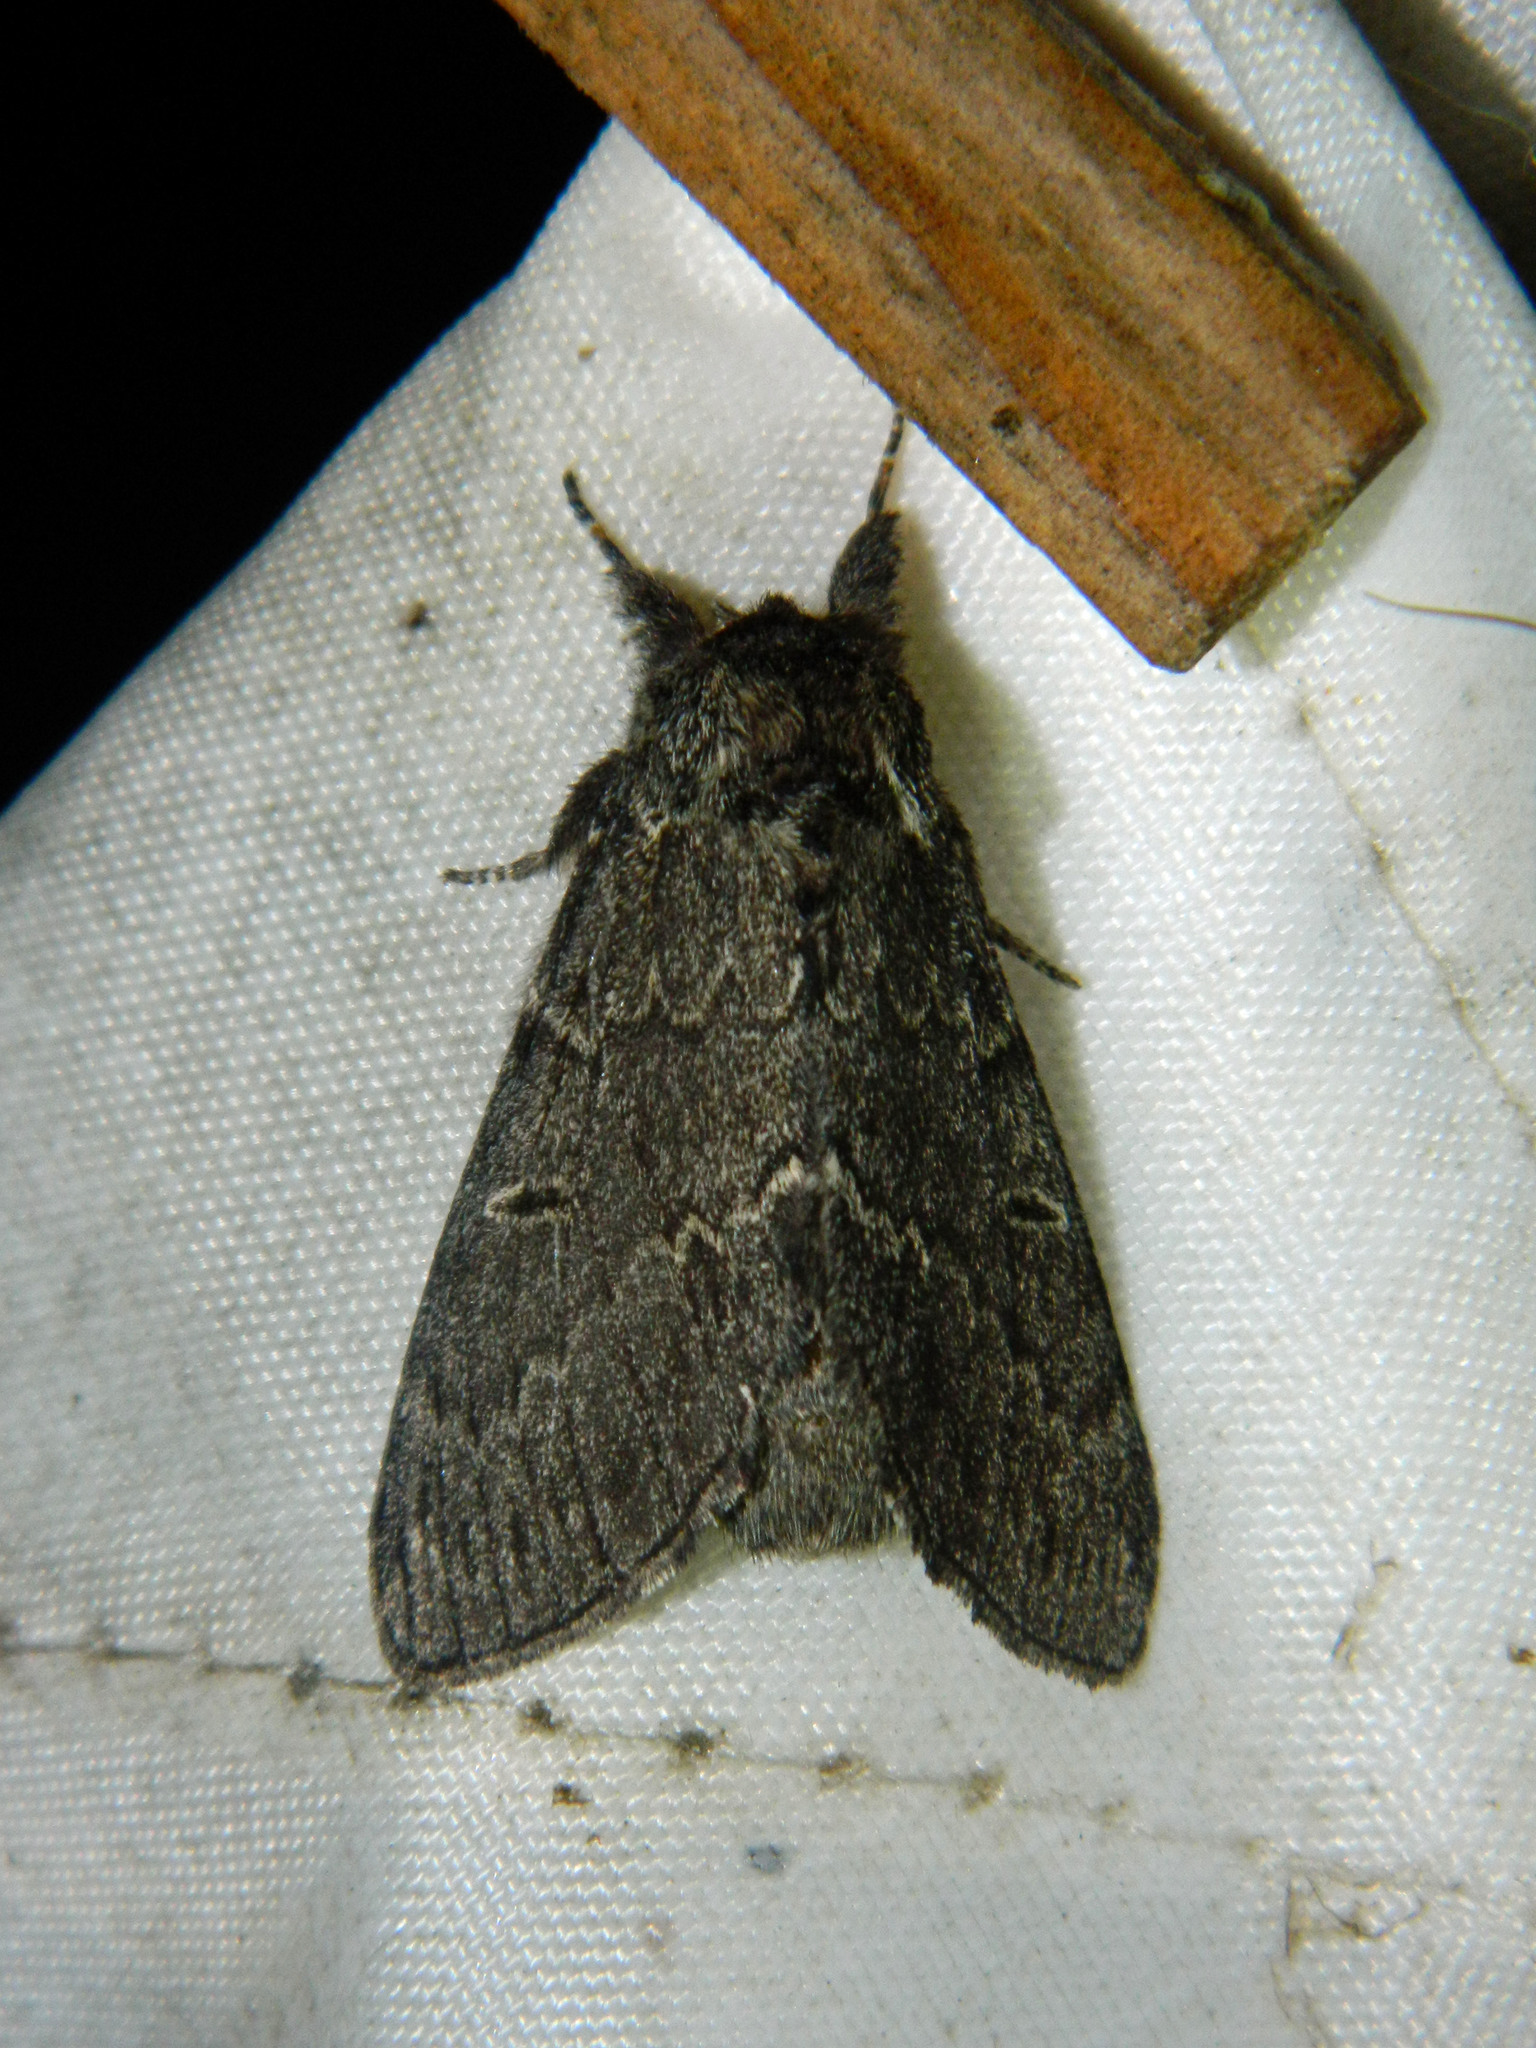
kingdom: Animalia
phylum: Arthropoda
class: Insecta
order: Lepidoptera
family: Notodontidae
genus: Notodonta
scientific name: Notodonta torva
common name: Large dark prominent
